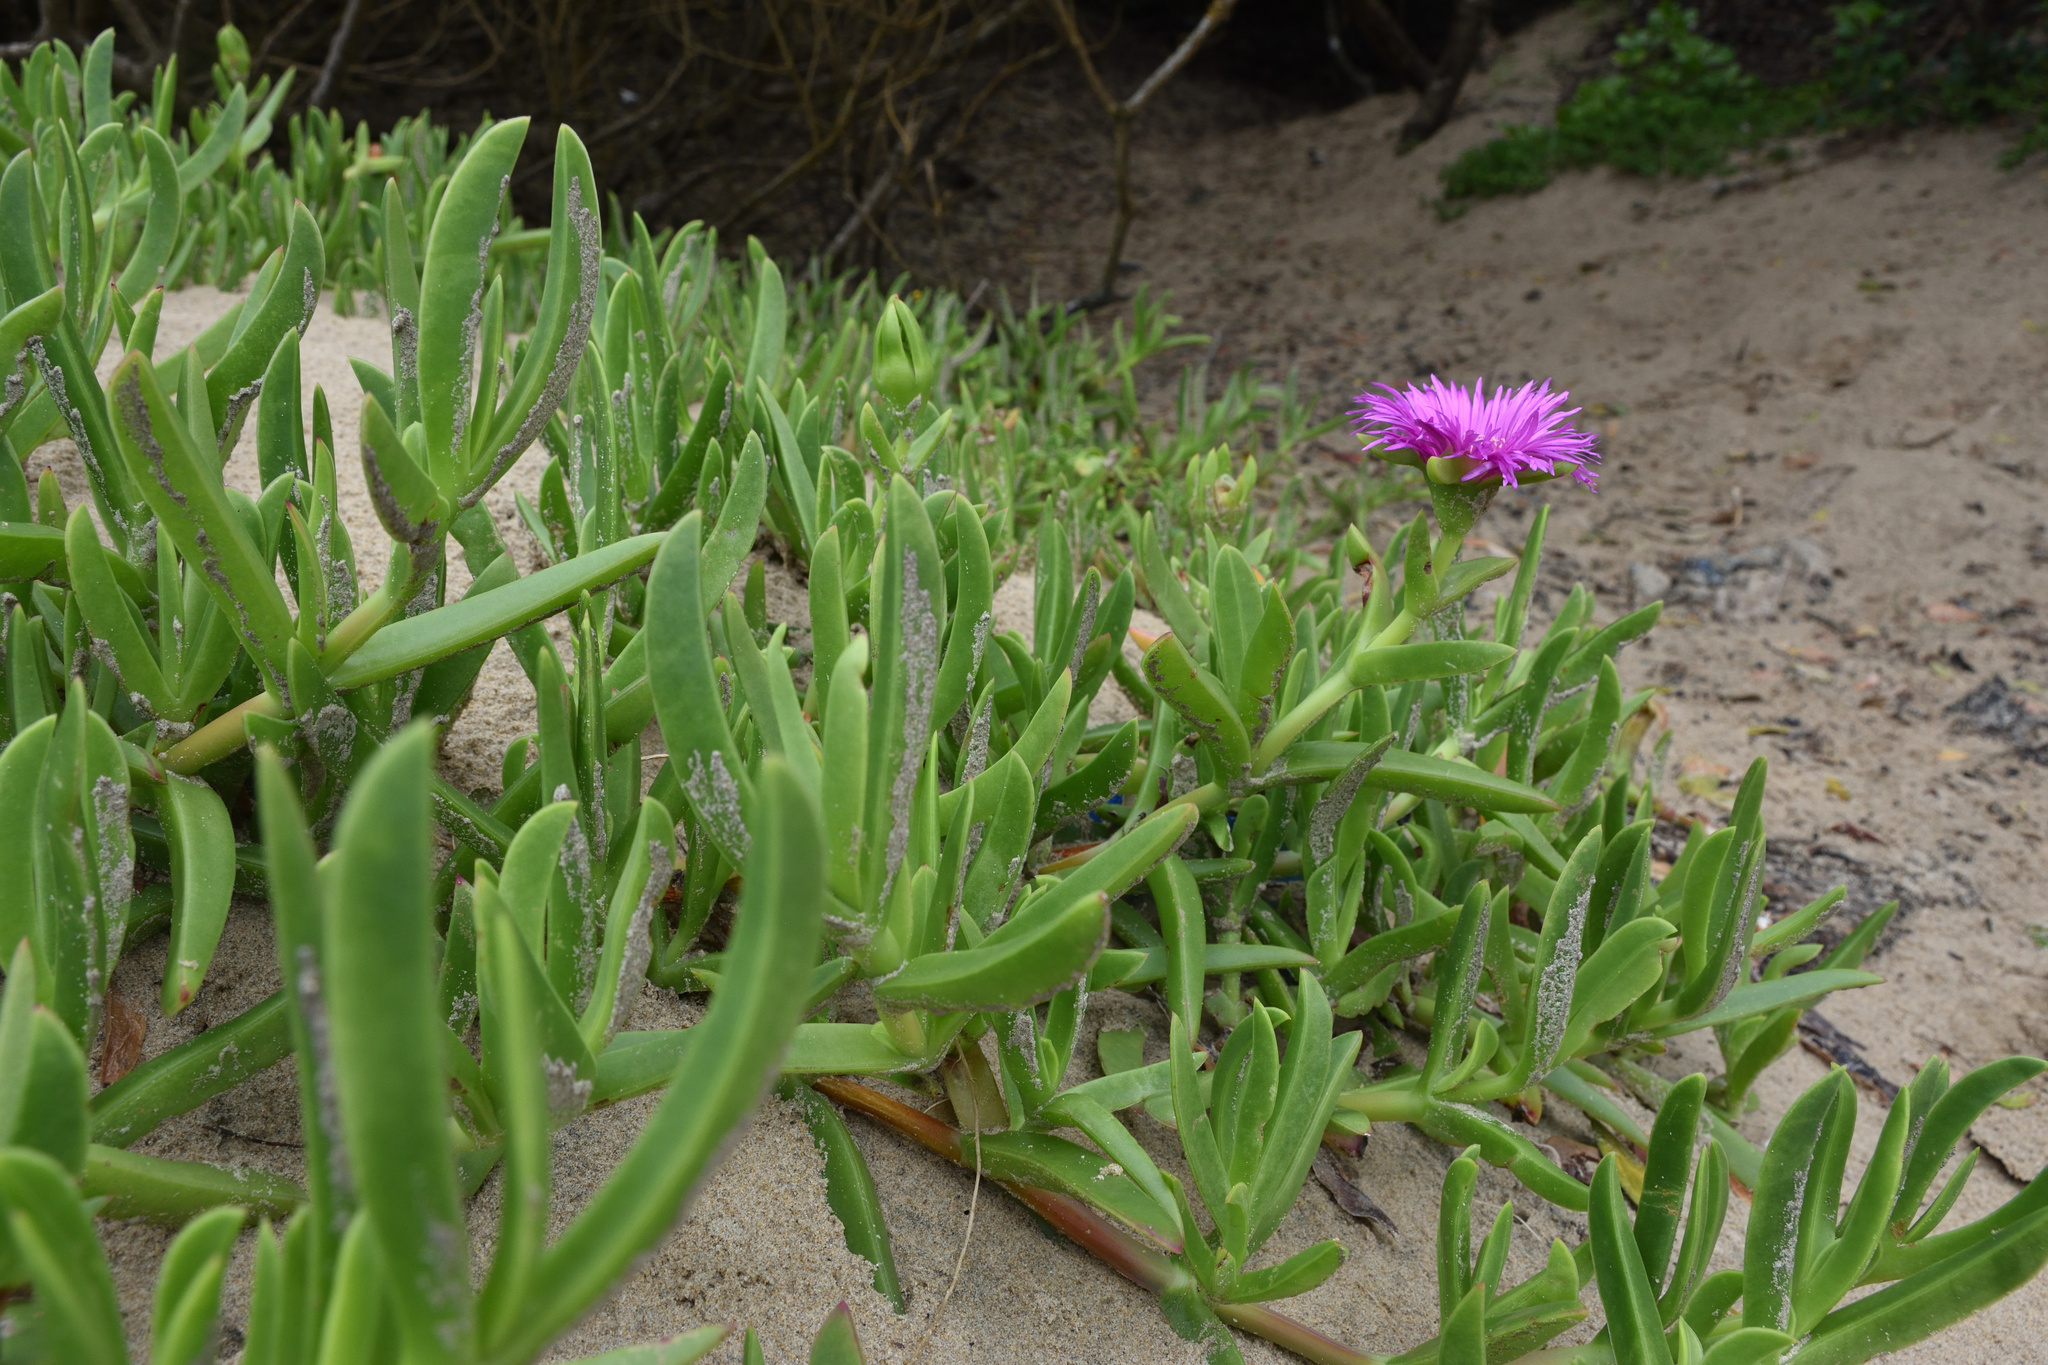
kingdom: Plantae
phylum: Tracheophyta
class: Magnoliopsida
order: Caryophyllales
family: Aizoaceae
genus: Carpobrotus
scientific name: Carpobrotus deliciosus
